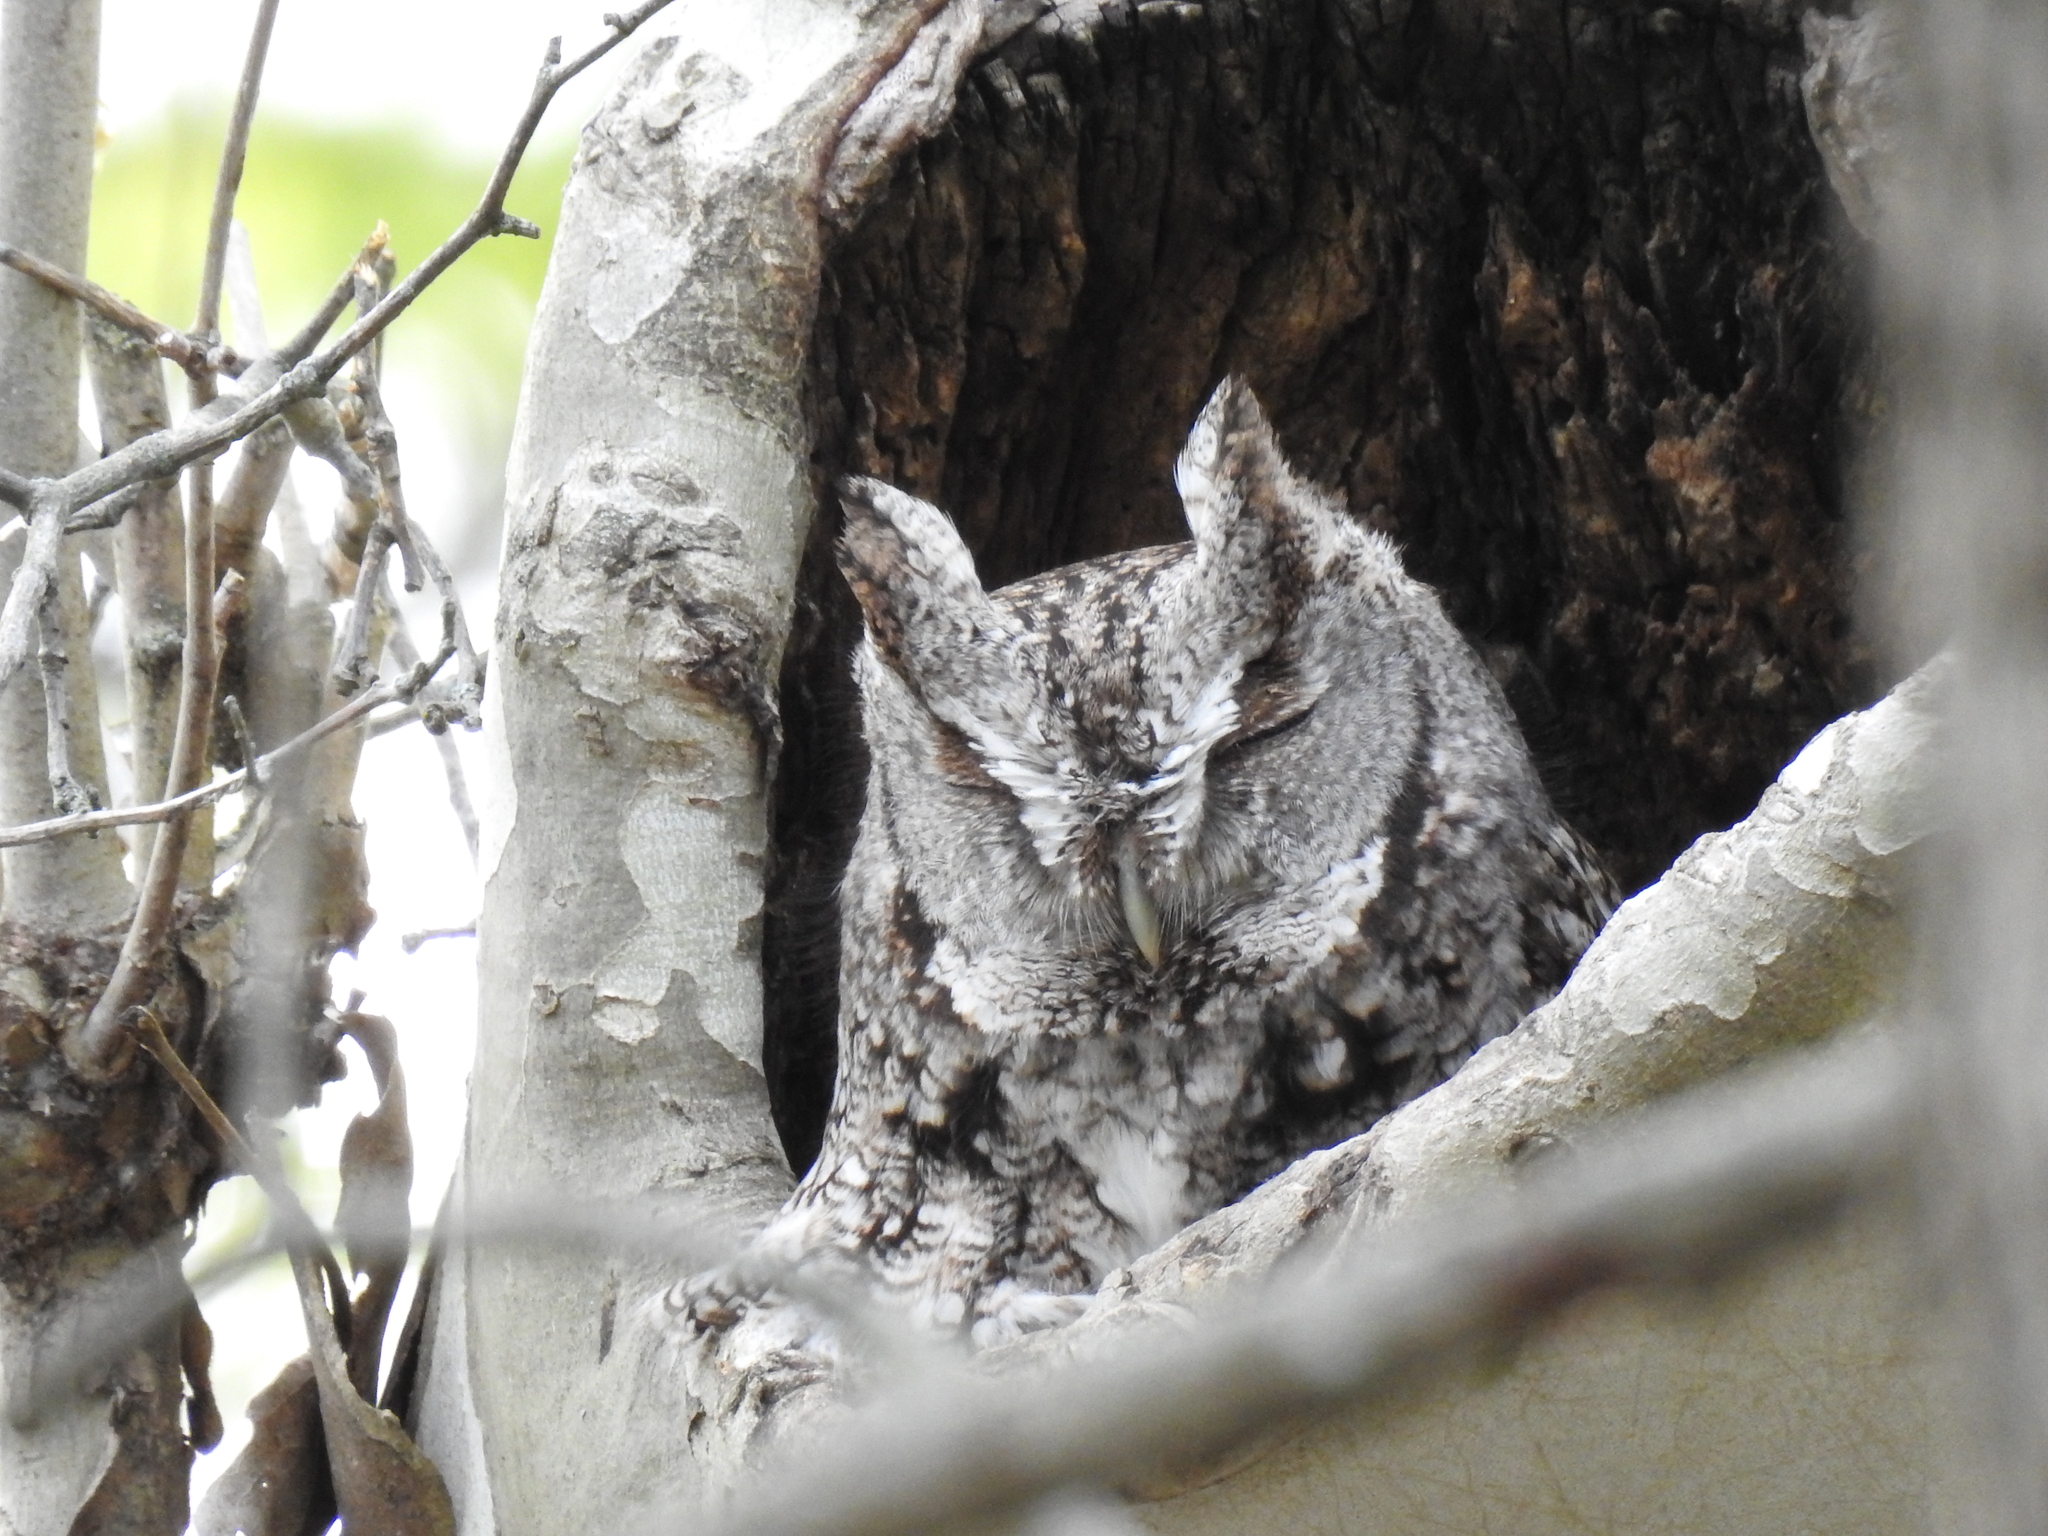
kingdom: Animalia
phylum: Chordata
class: Aves
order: Strigiformes
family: Strigidae
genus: Megascops
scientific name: Megascops asio
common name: Eastern screech-owl
